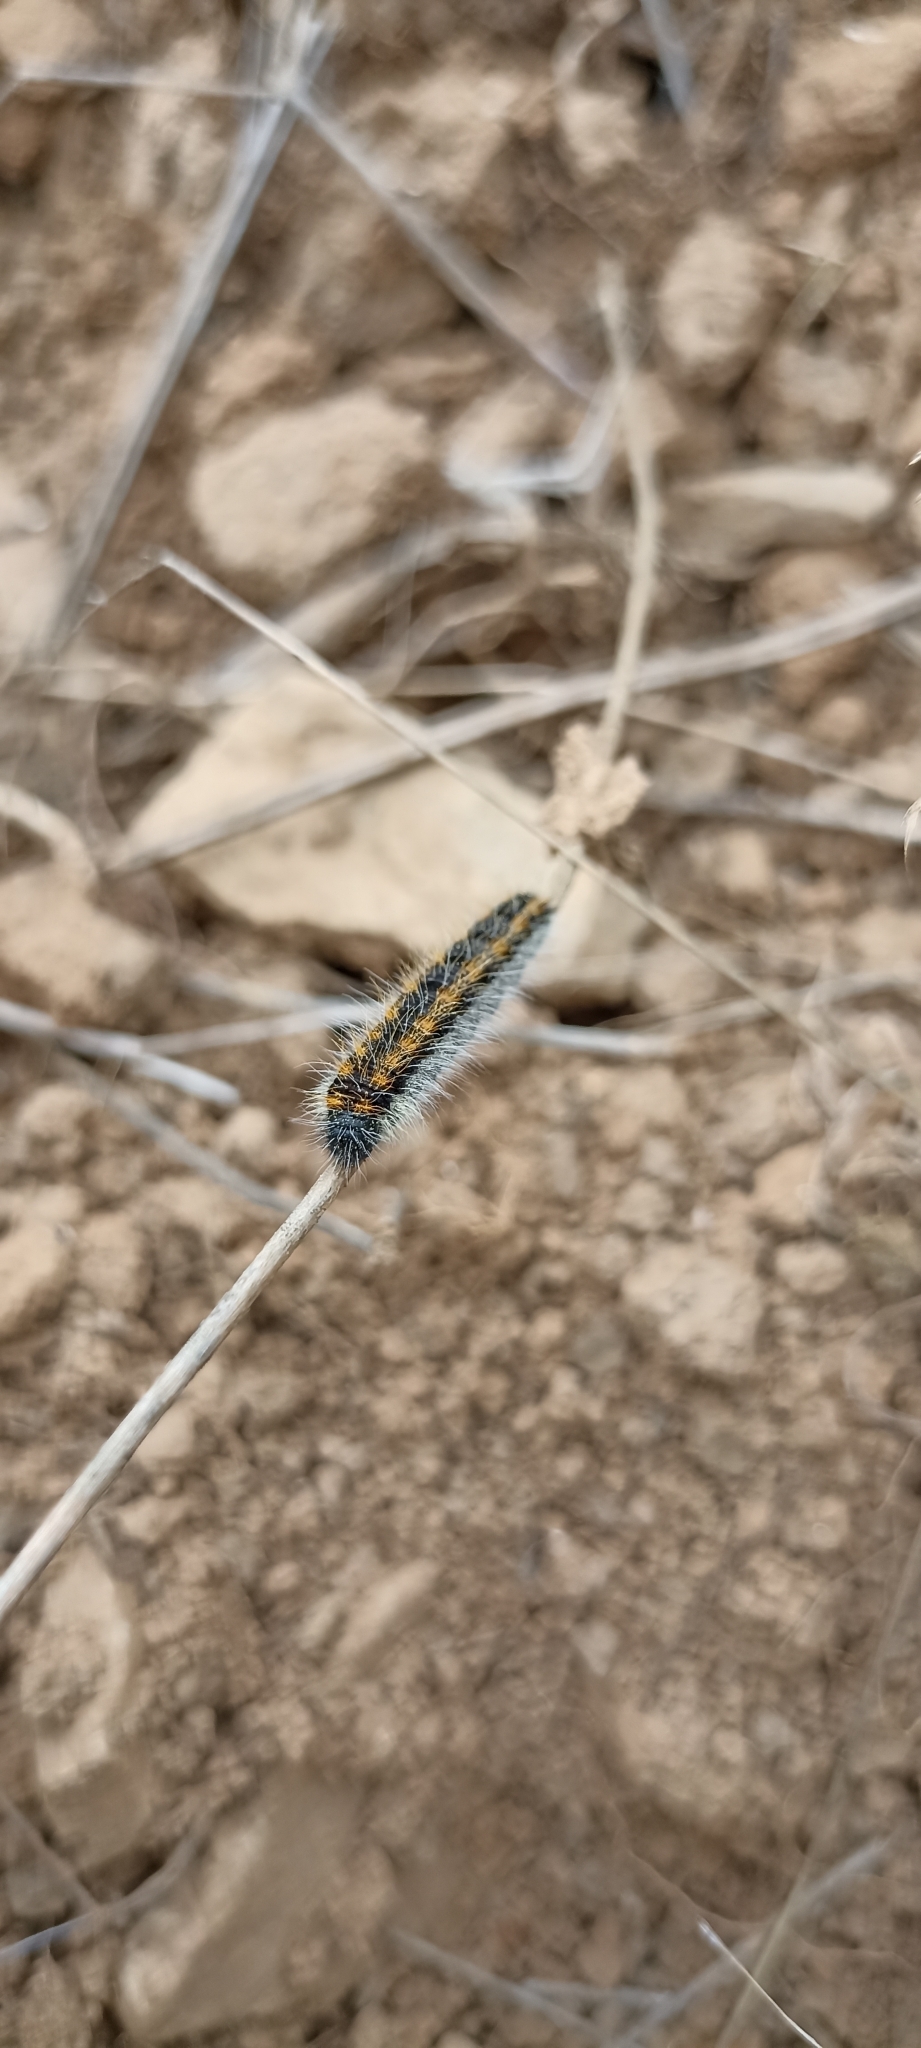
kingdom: Animalia
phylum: Arthropoda
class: Insecta
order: Lepidoptera
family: Pieridae
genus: Aporia
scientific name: Aporia crataegi
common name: Black-veined white
